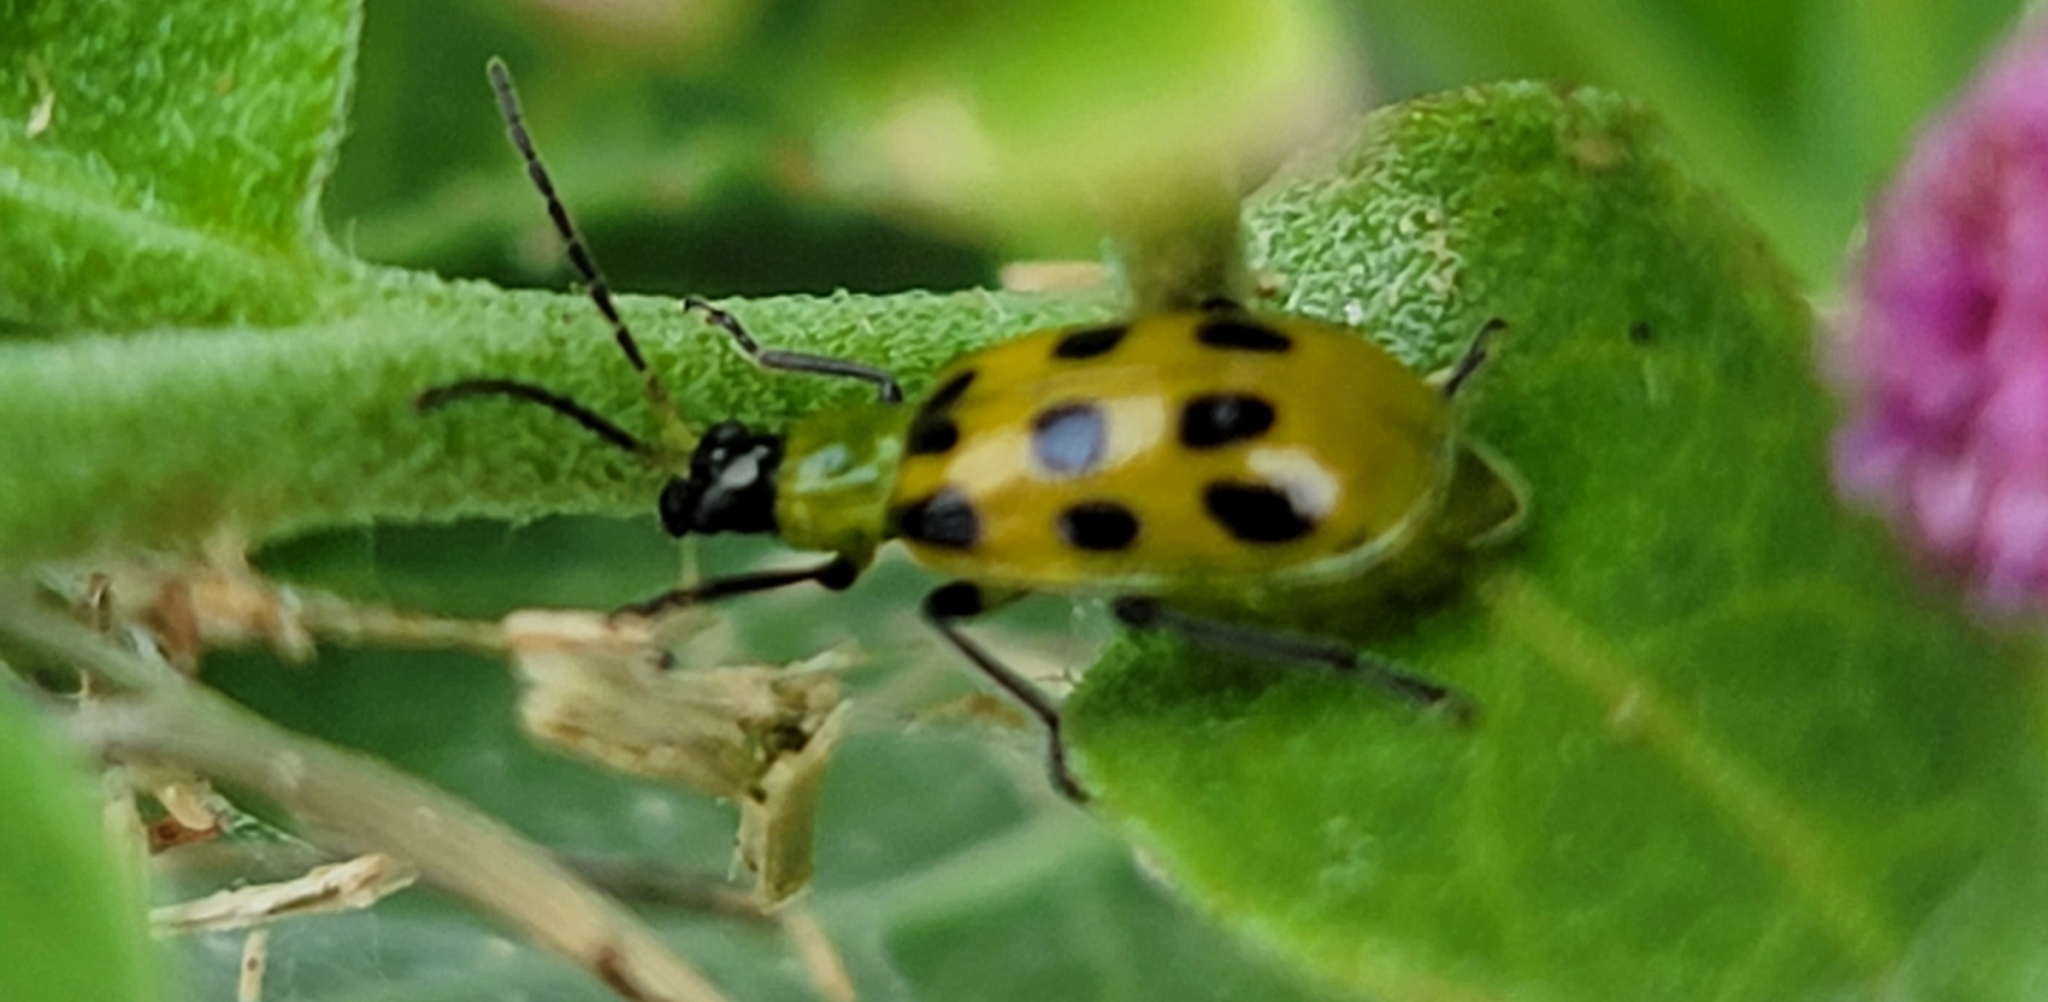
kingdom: Animalia
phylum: Arthropoda
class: Insecta
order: Coleoptera
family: Chrysomelidae
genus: Diabrotica
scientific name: Diabrotica undecimpunctata
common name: Spotted cucumber beetle
